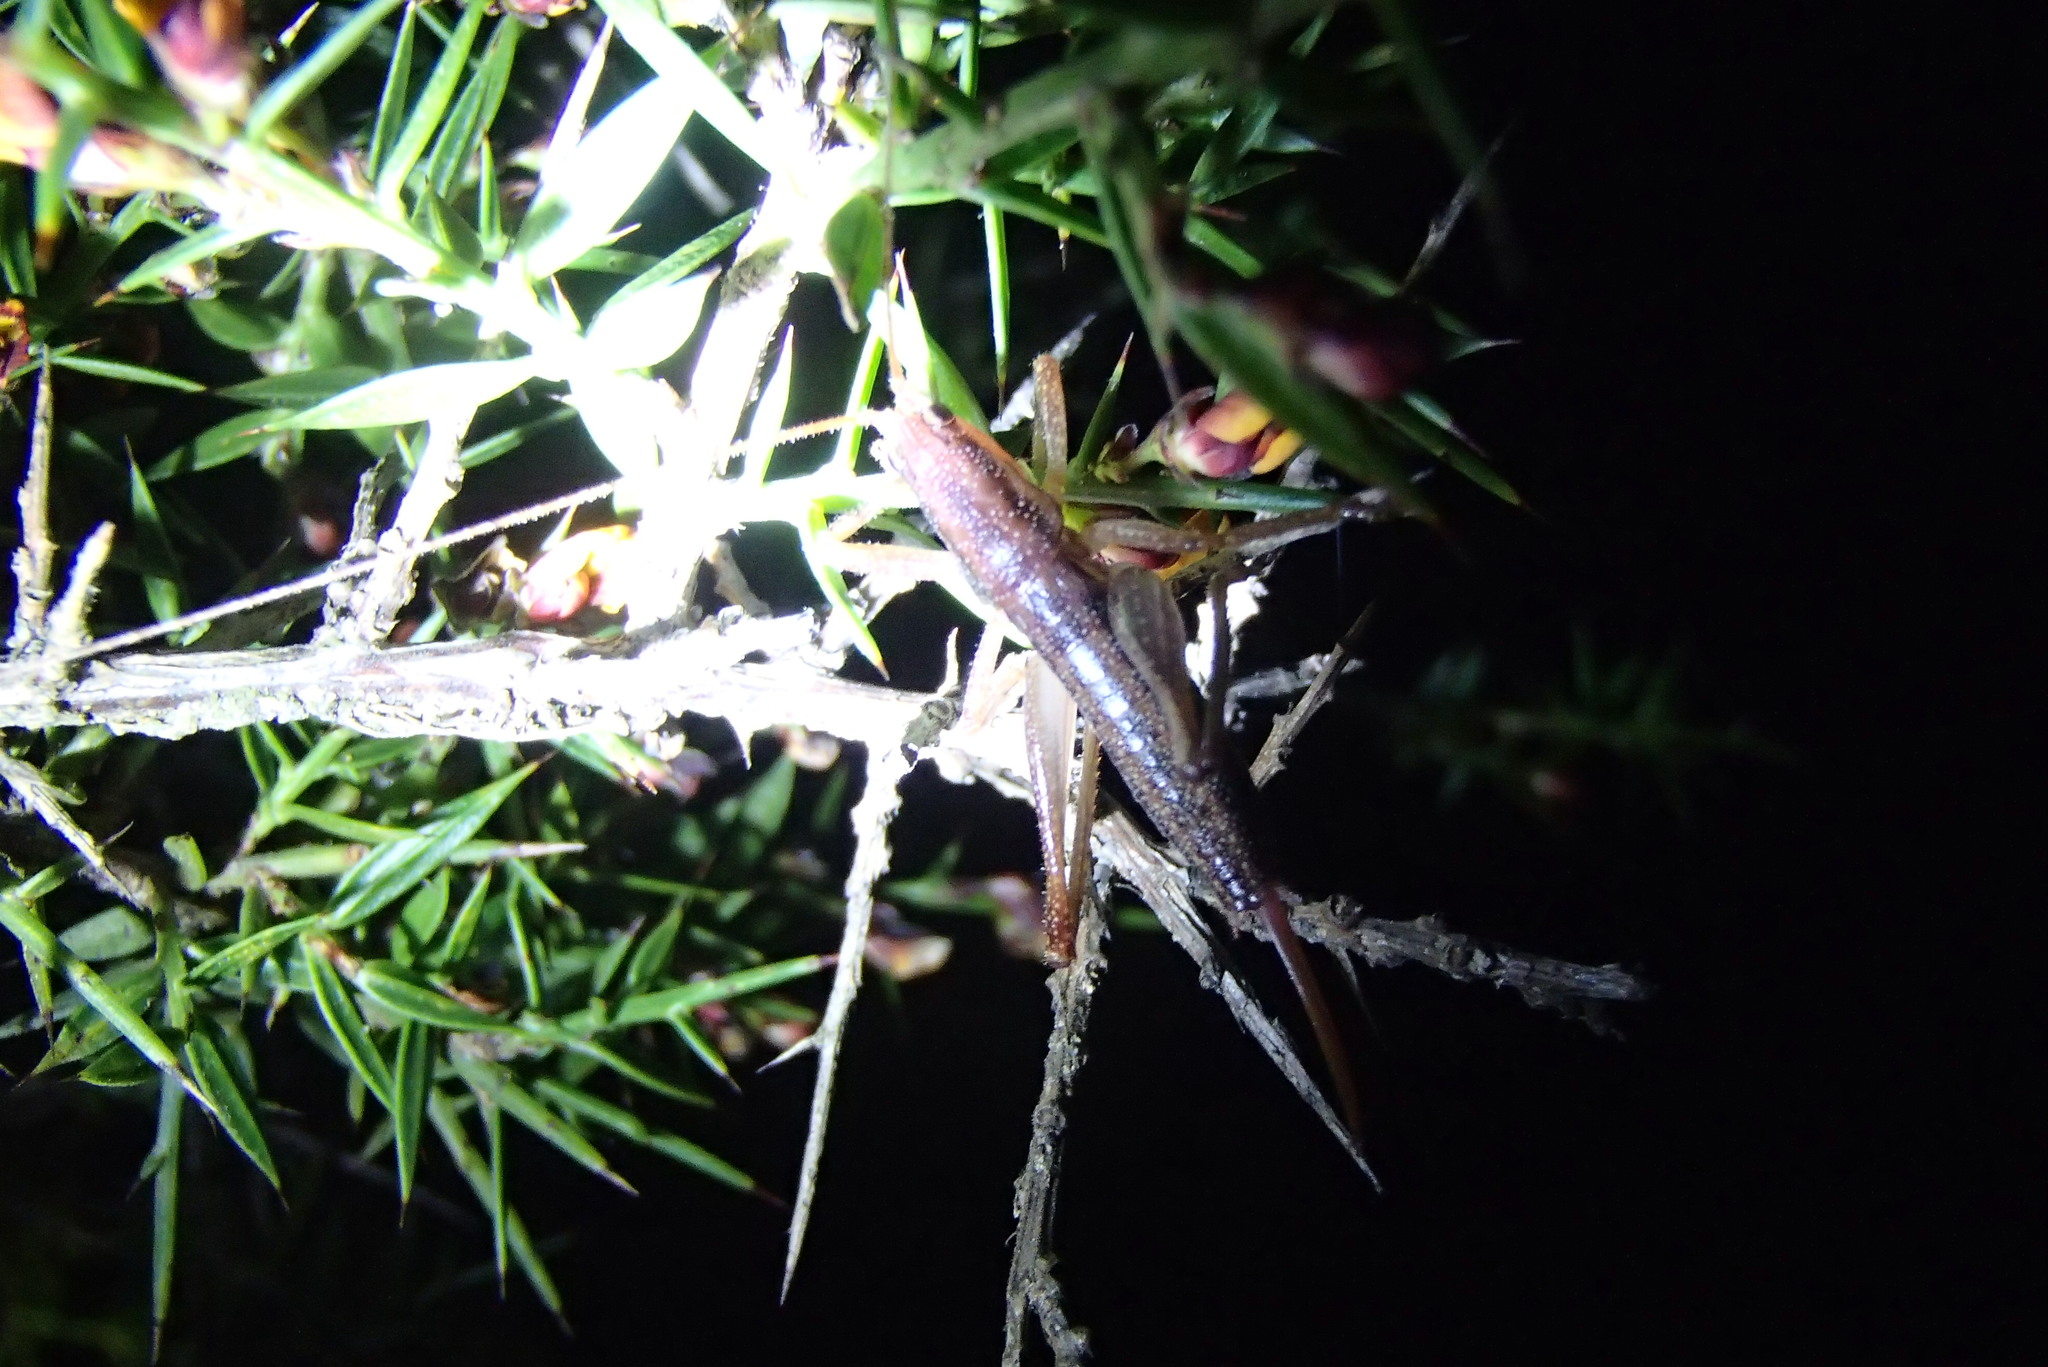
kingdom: Animalia
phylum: Arthropoda
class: Insecta
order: Orthoptera
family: Tettigoniidae
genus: Coptaspis
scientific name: Coptaspis brevipennis
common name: Sidney woodland katydid
